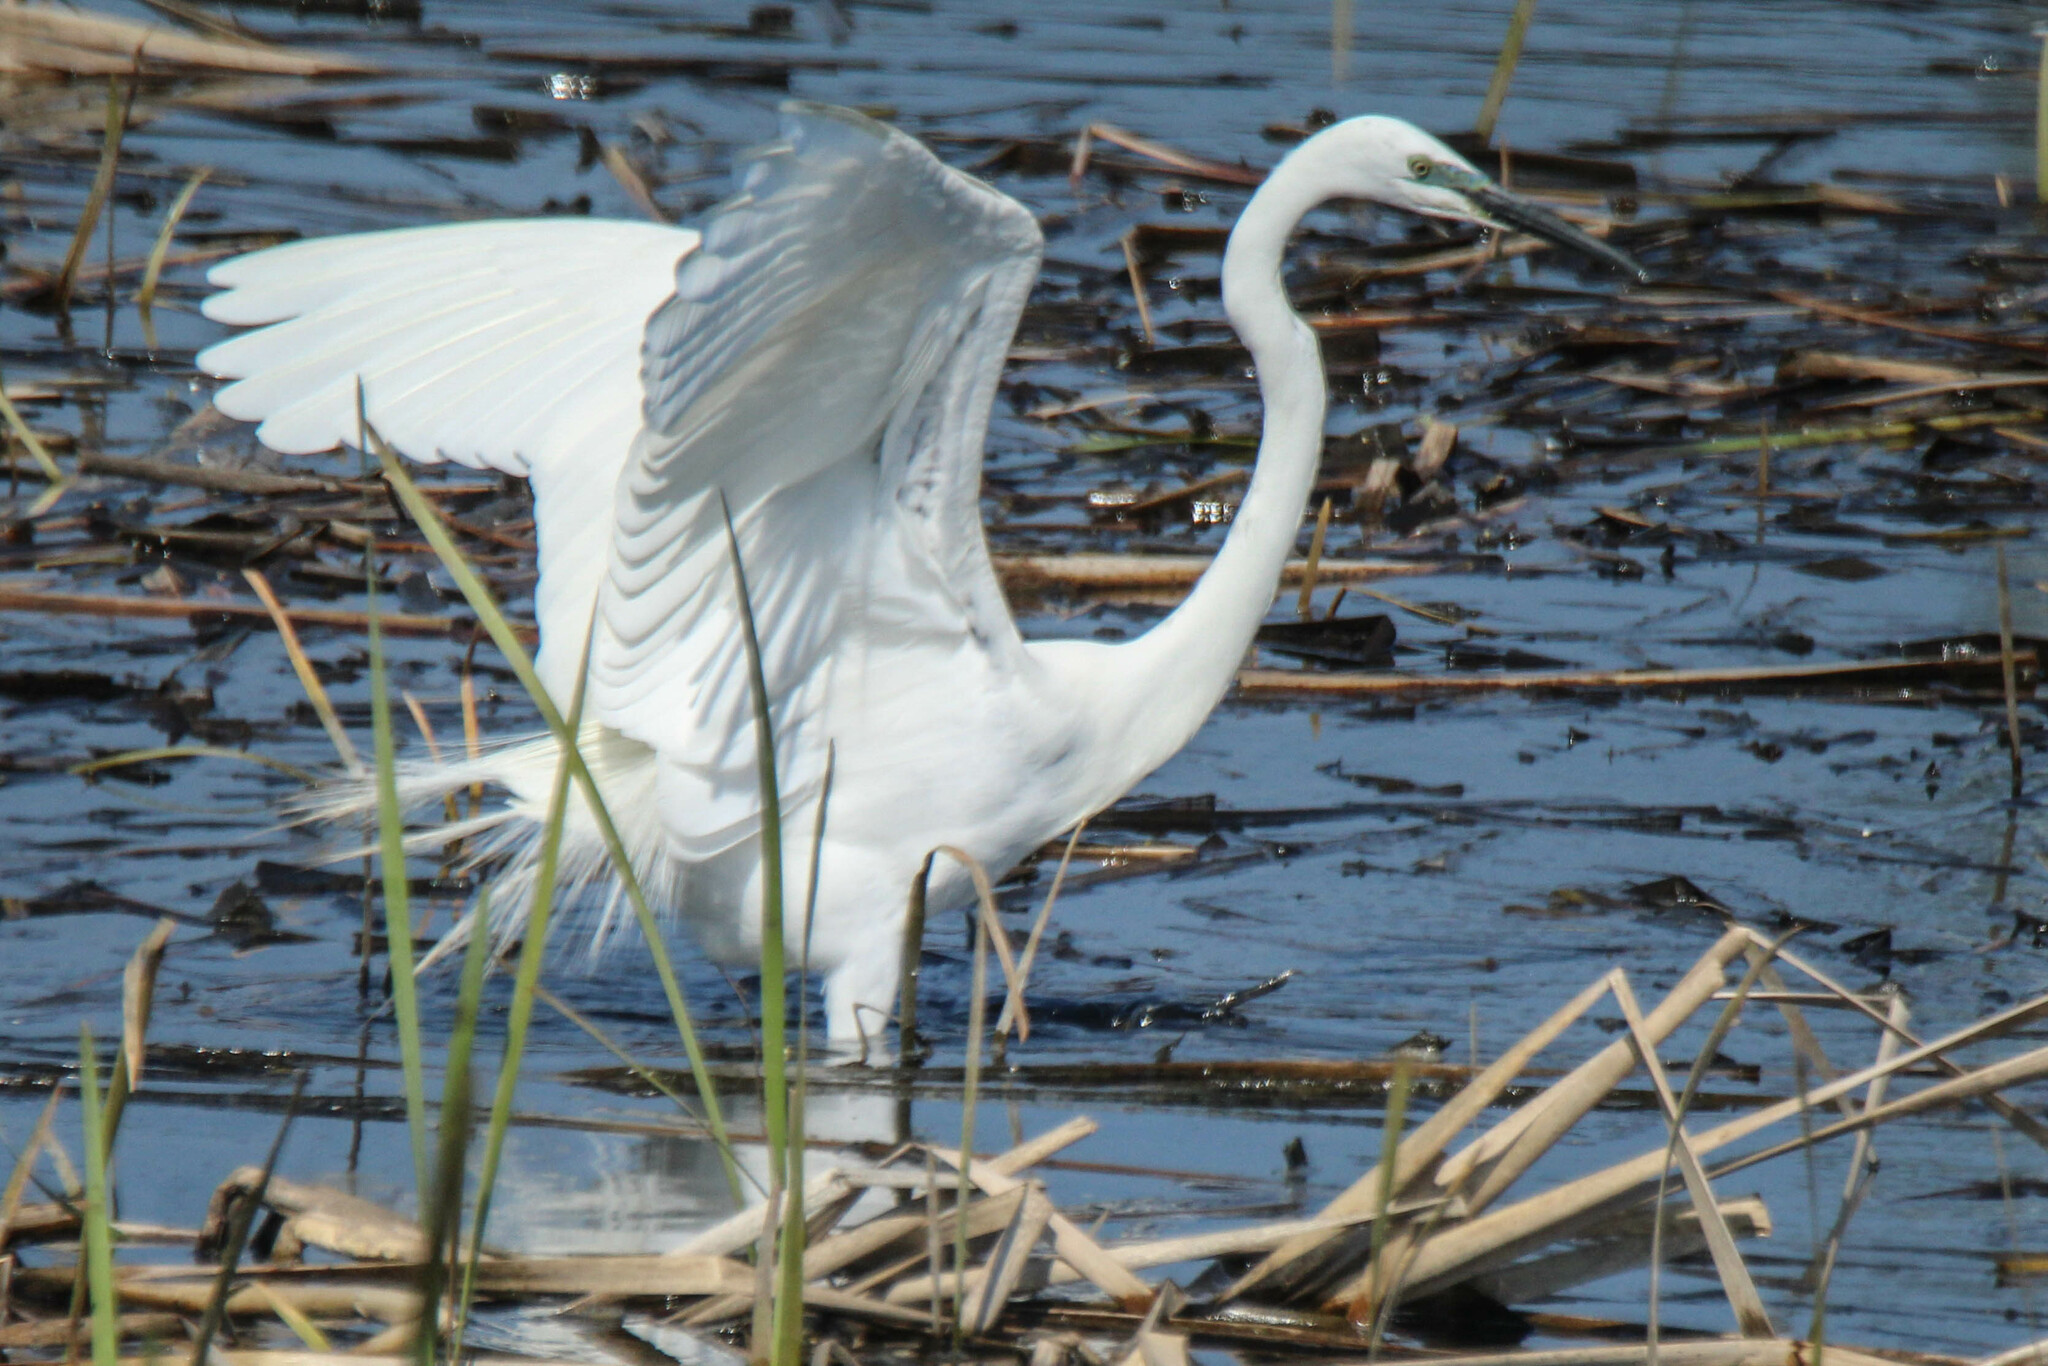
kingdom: Animalia
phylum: Chordata
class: Aves
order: Pelecaniformes
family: Ardeidae
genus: Ardea
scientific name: Ardea modesta
